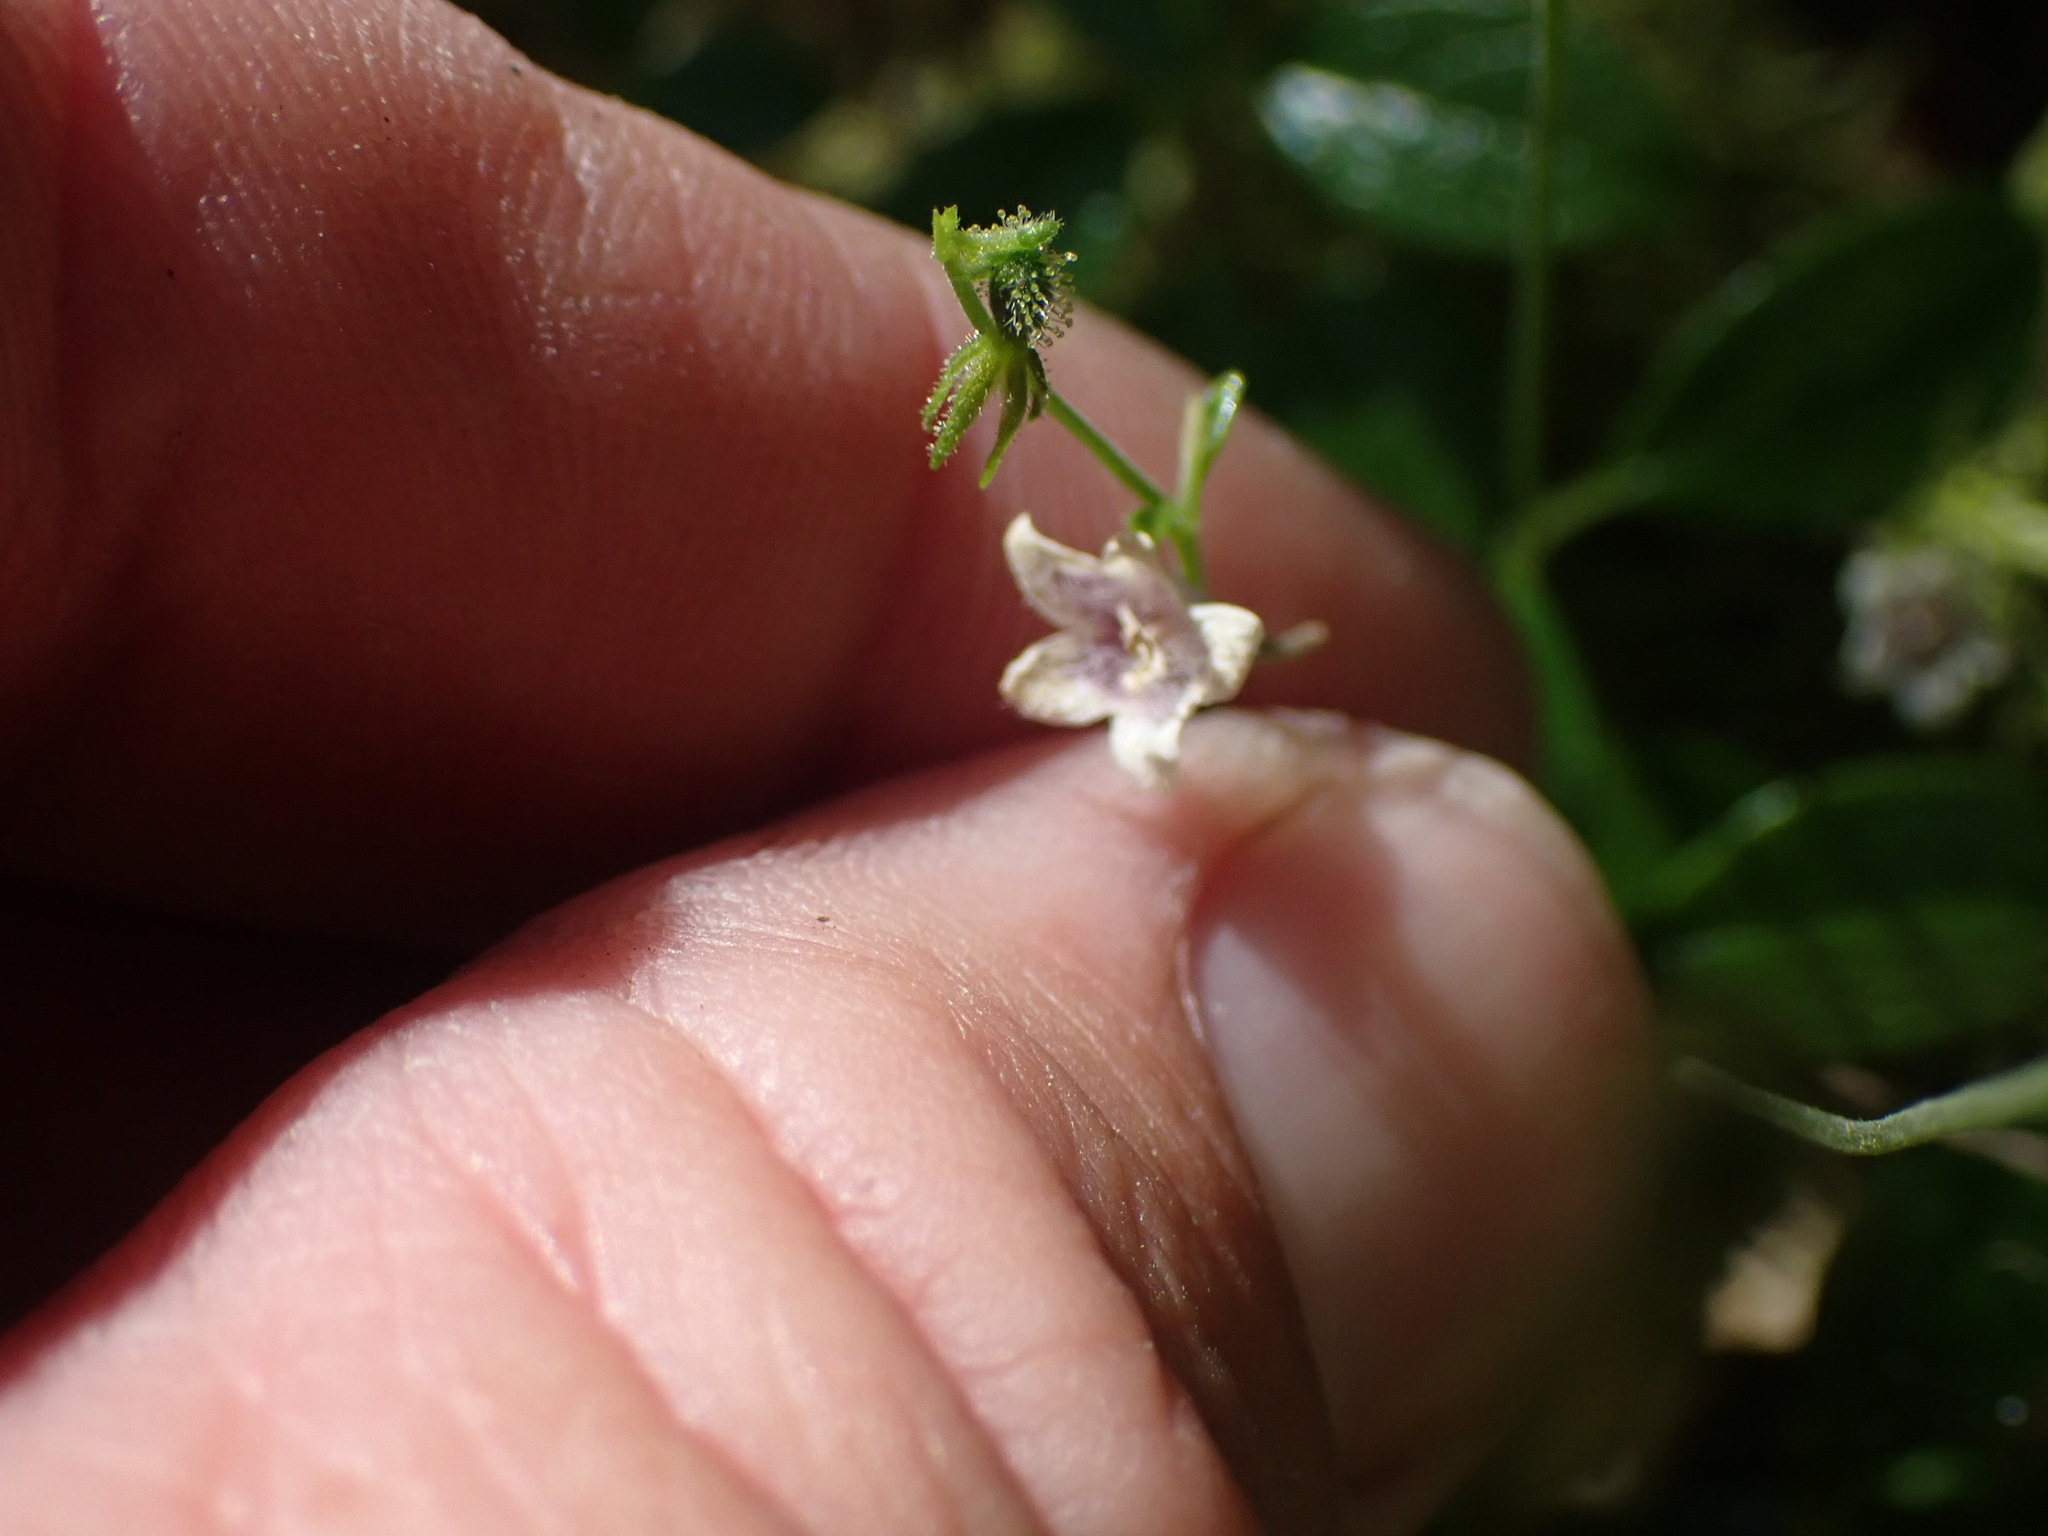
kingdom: Plantae
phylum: Tracheophyta
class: Magnoliopsida
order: Dipsacales
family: Caprifoliaceae
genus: Linnaea
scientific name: Linnaea borealis
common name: Twinflower
